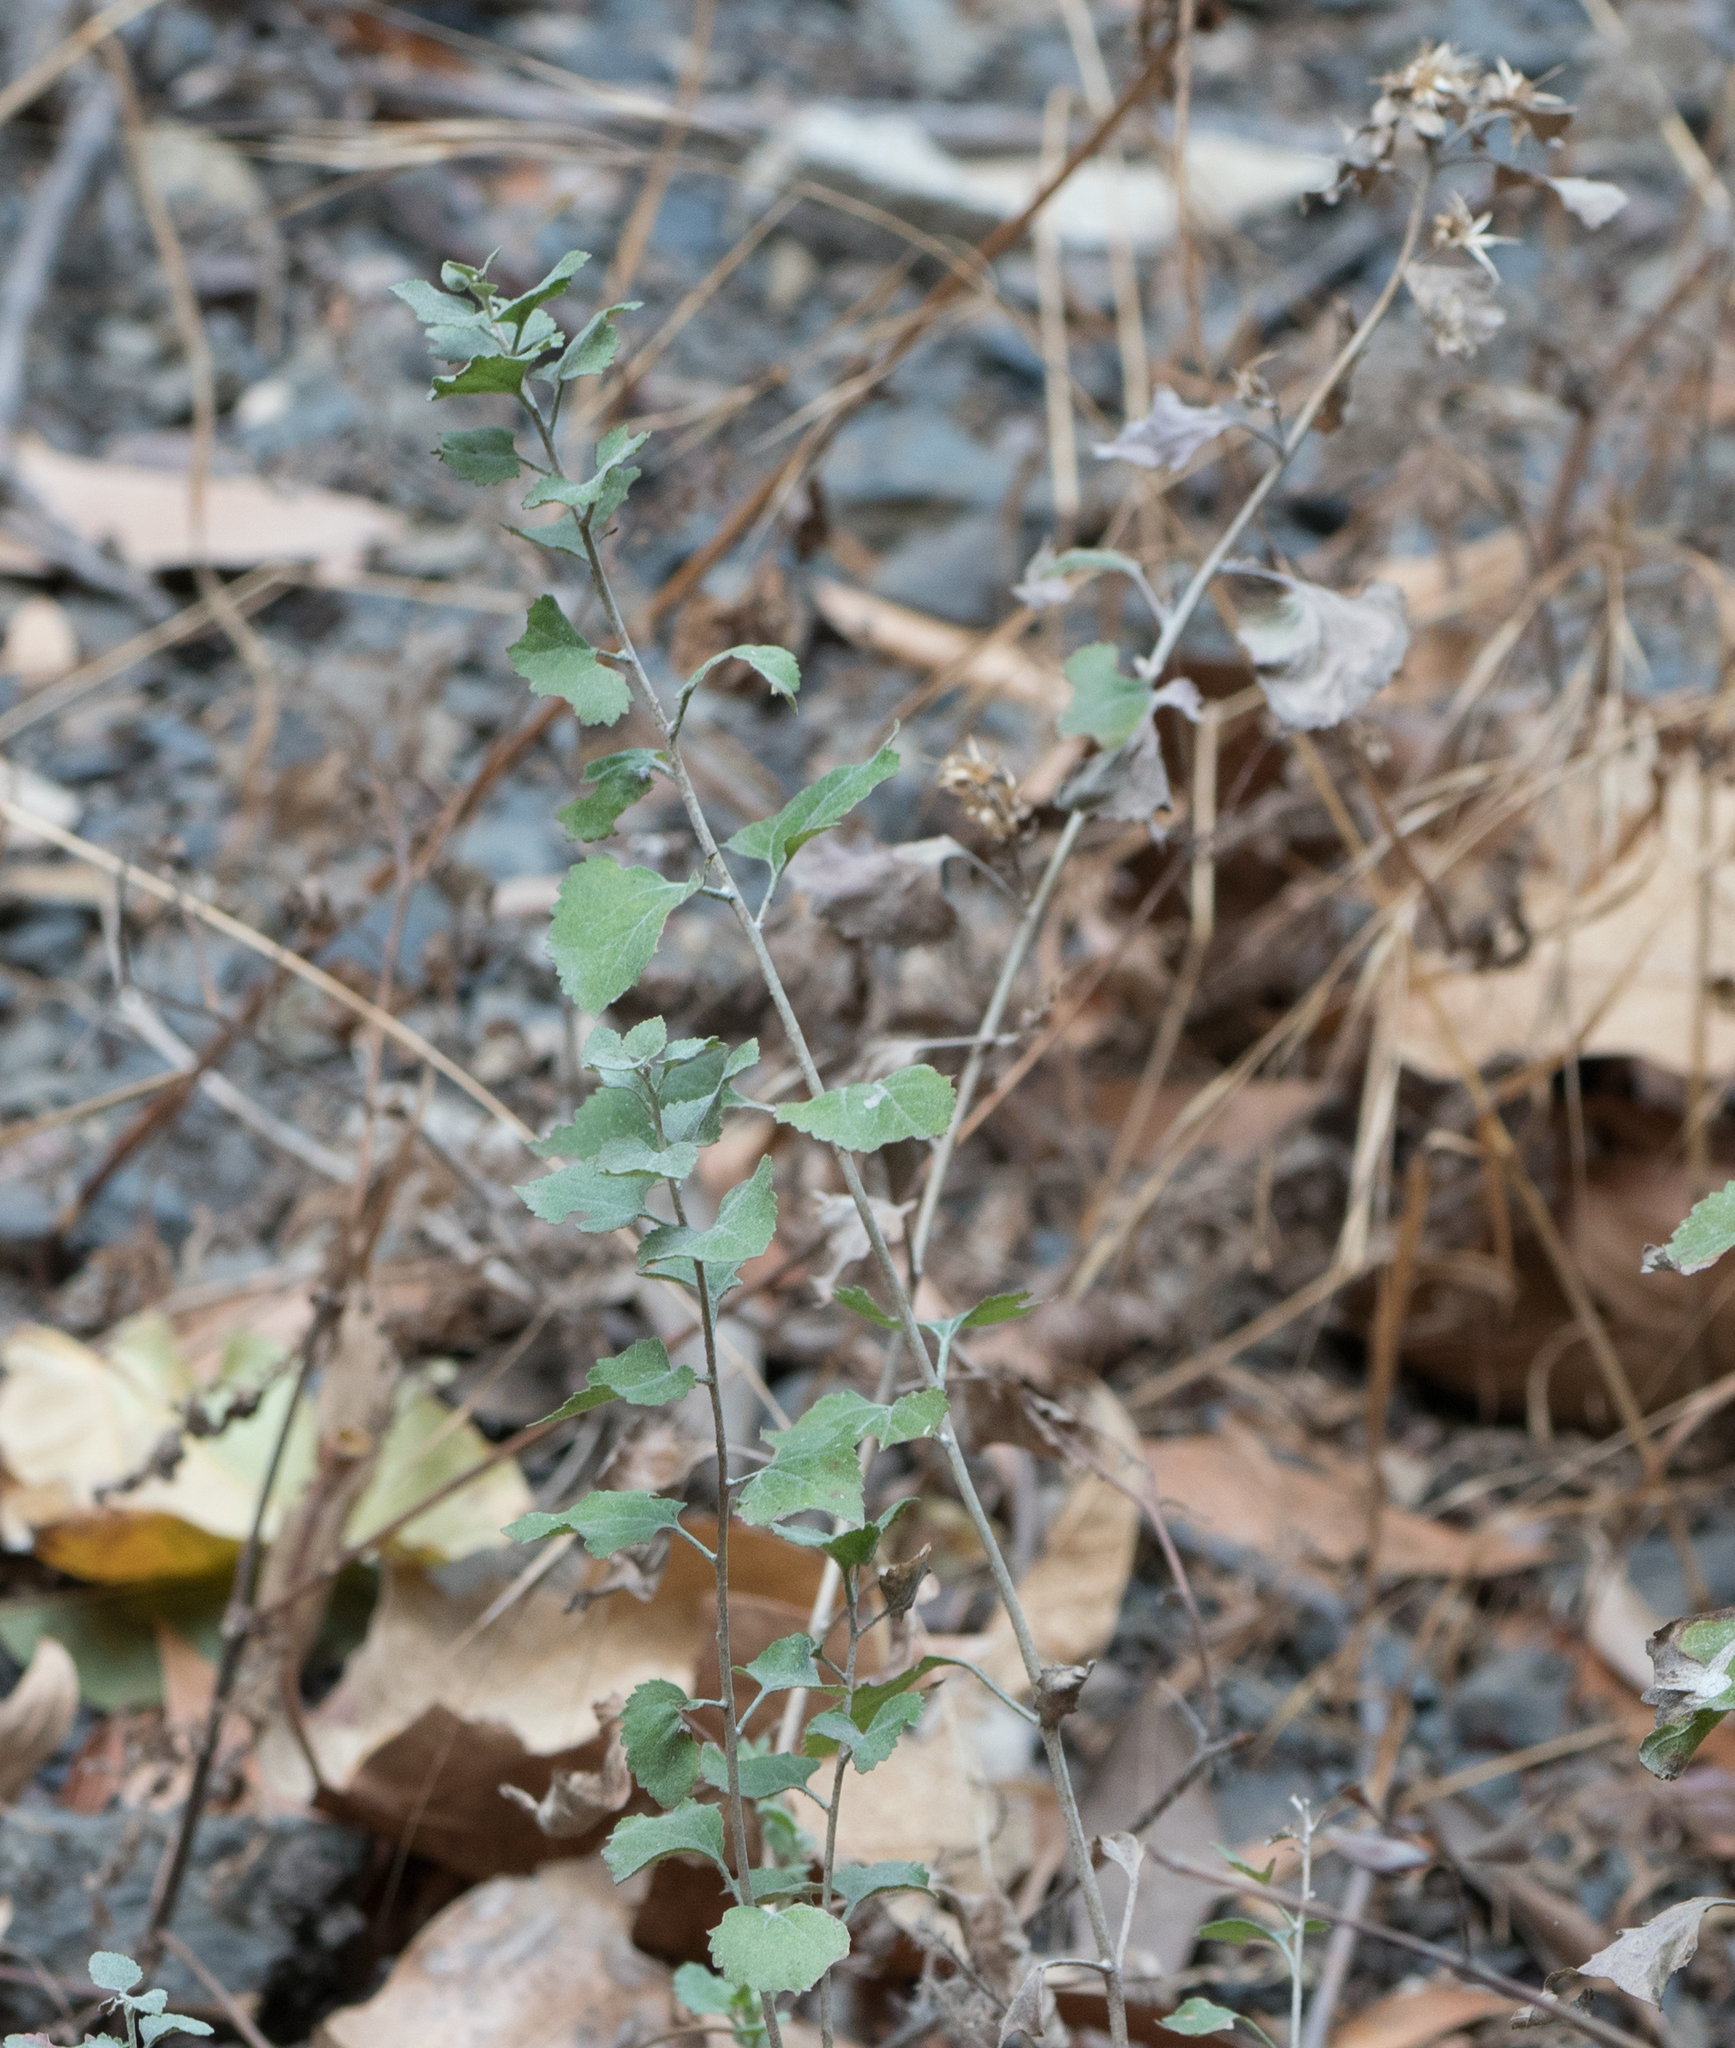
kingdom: Plantae
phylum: Tracheophyta
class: Magnoliopsida
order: Asterales
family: Asteraceae
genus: Brickellia
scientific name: Brickellia californica
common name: California brickellbush
